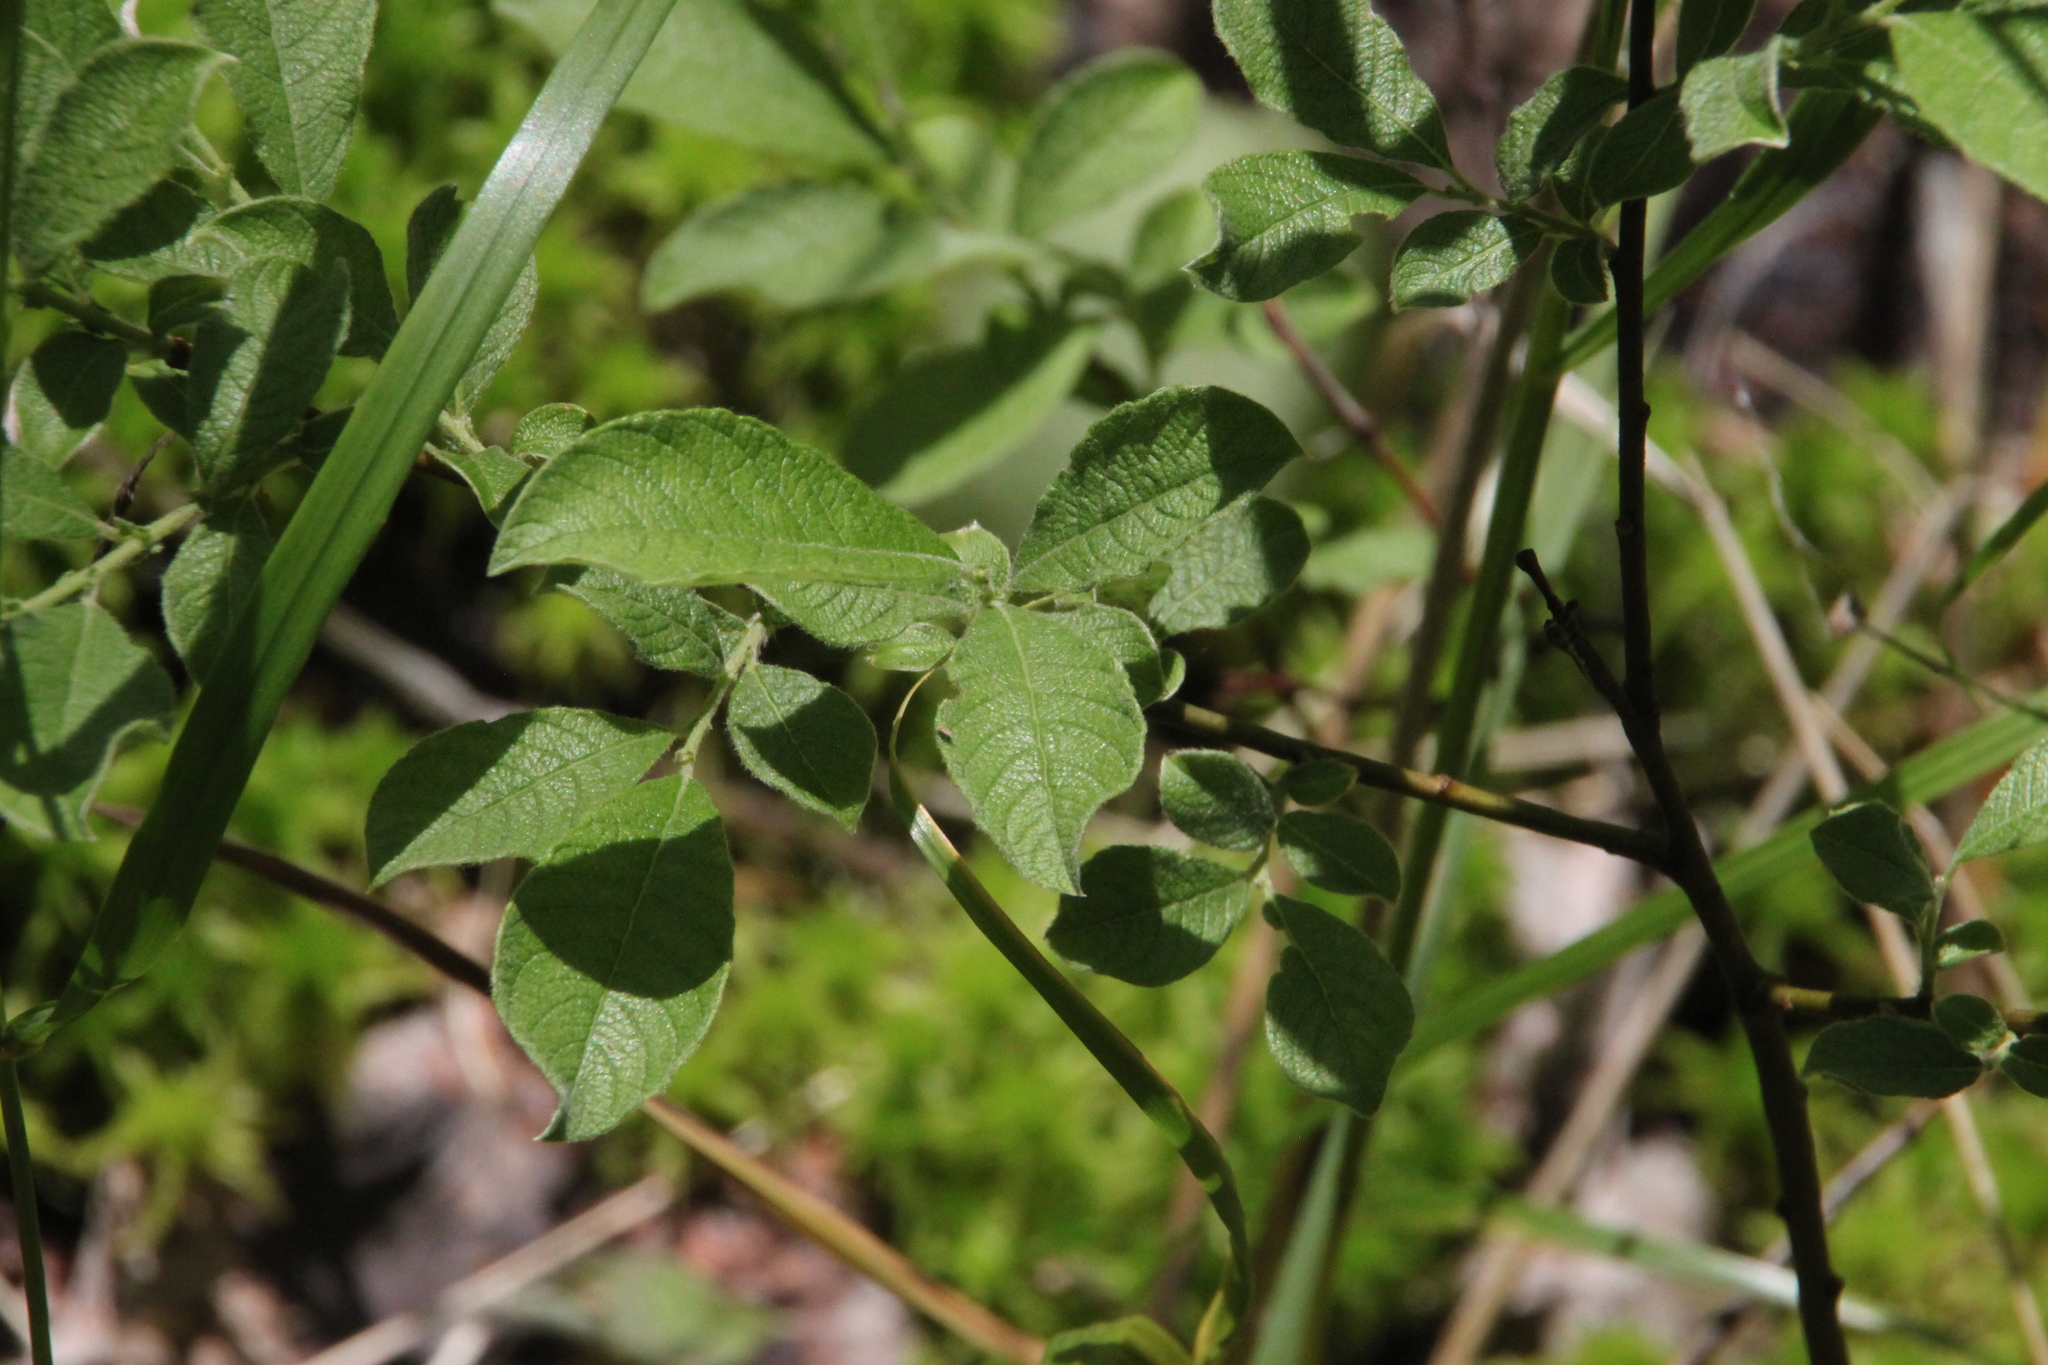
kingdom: Plantae
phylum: Tracheophyta
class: Magnoliopsida
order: Malpighiales
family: Salicaceae
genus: Salix
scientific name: Salix aurita
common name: Eared willow
